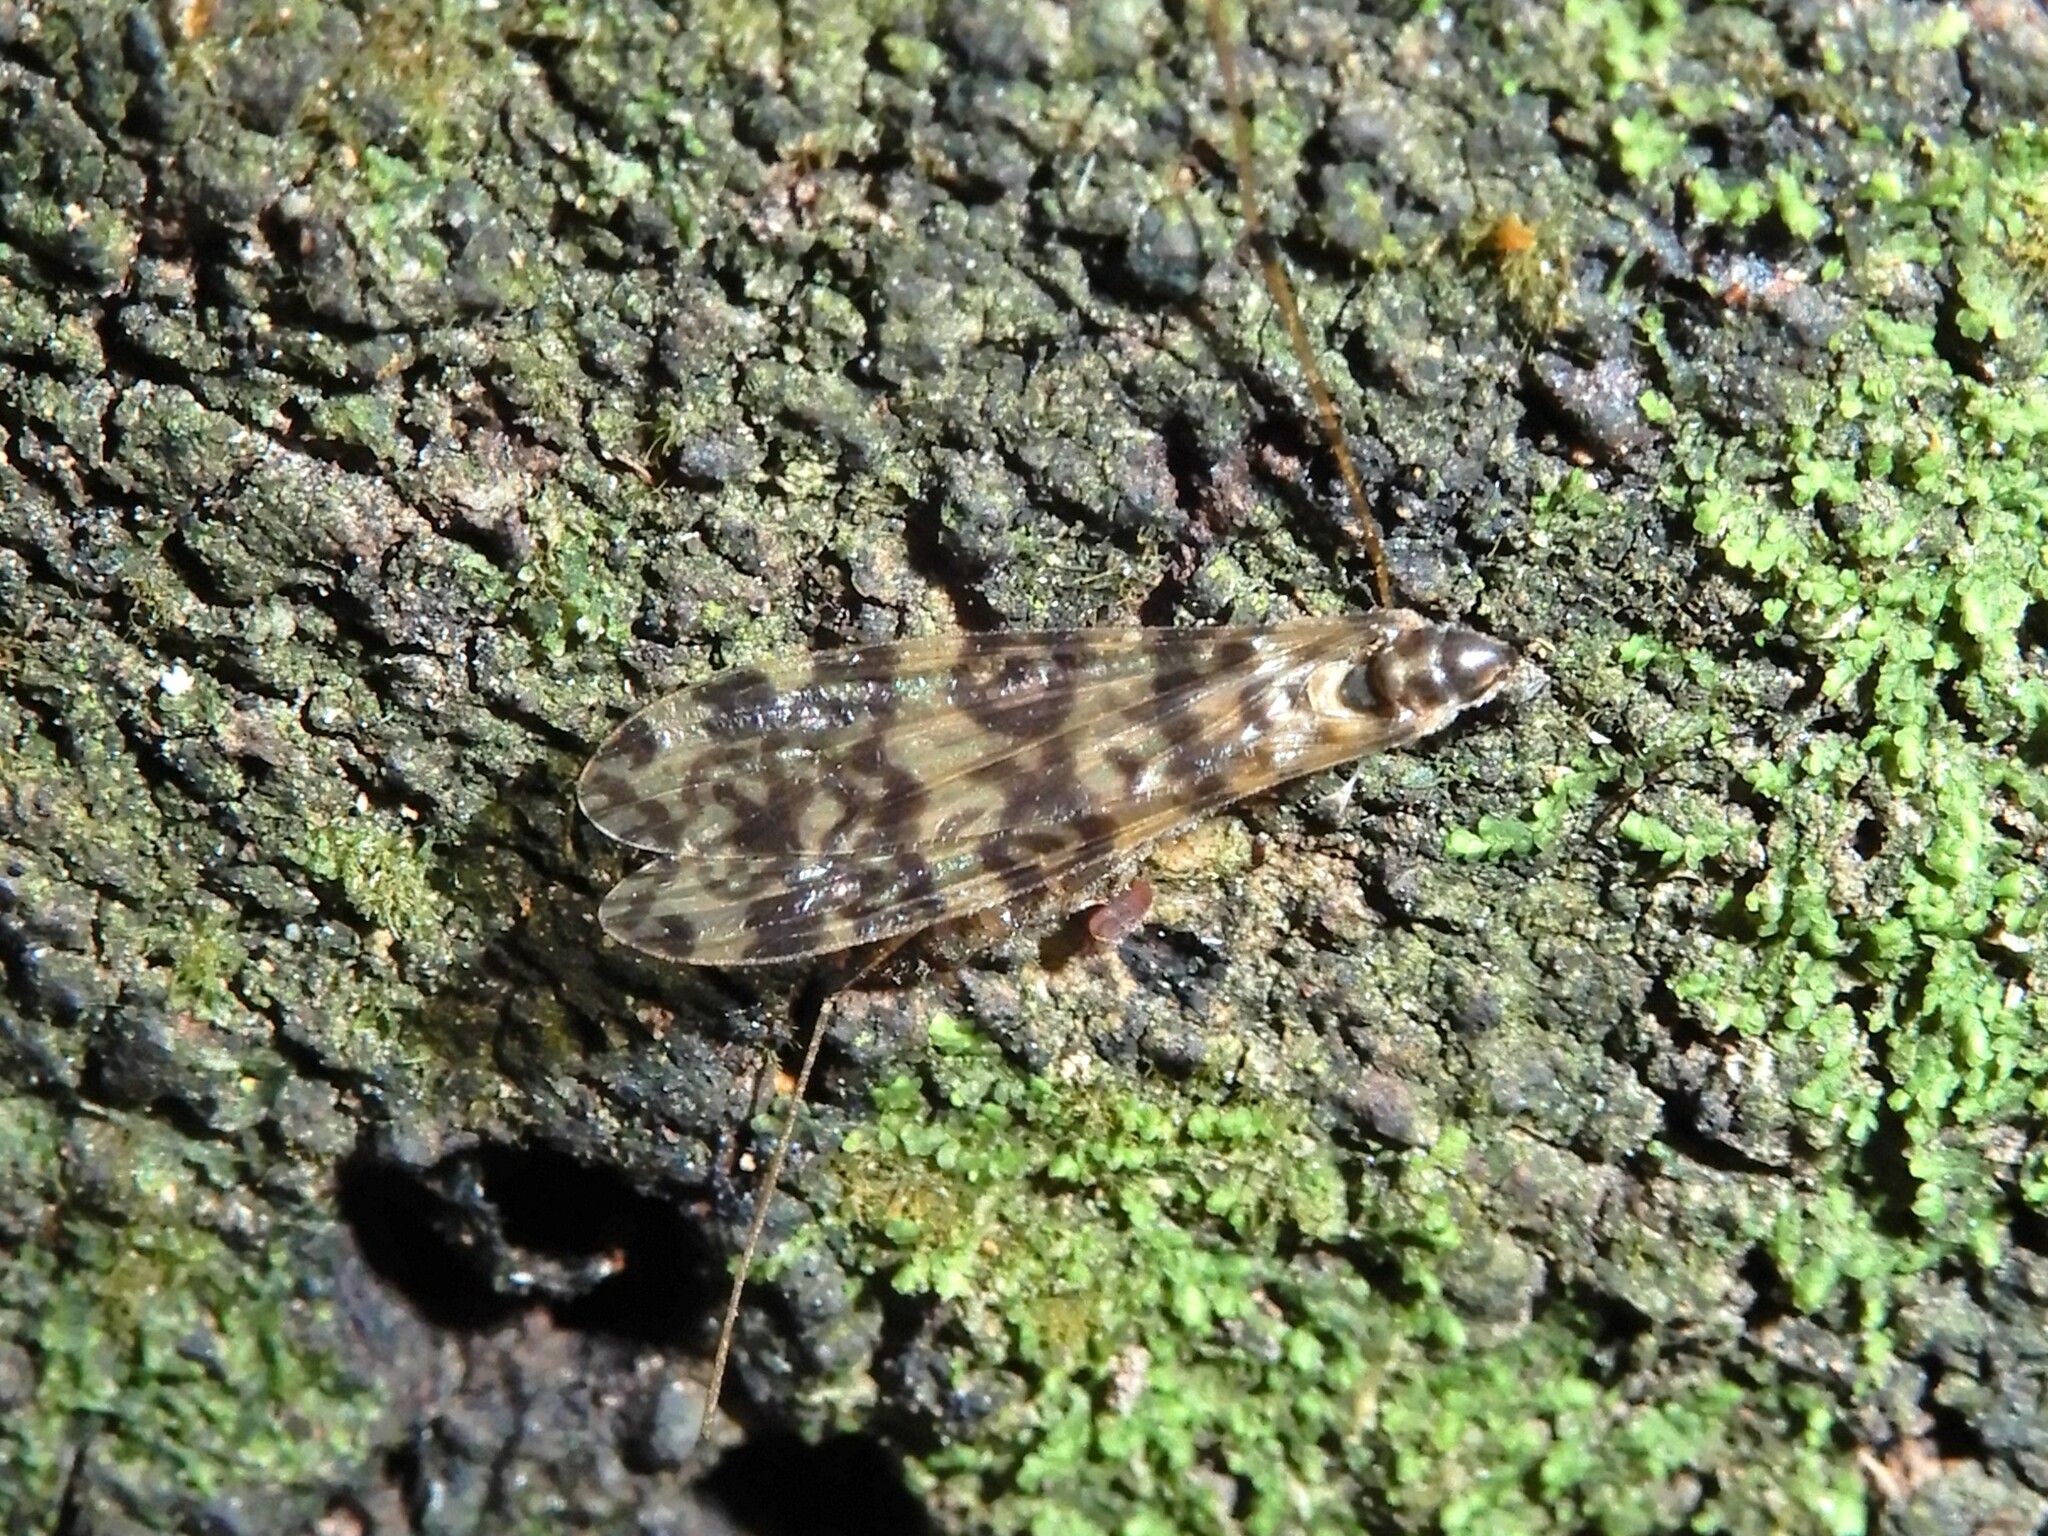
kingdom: Animalia
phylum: Arthropoda
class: Insecta
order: Diptera
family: Limoniidae
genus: Discobola
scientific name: Discobola gibberina
